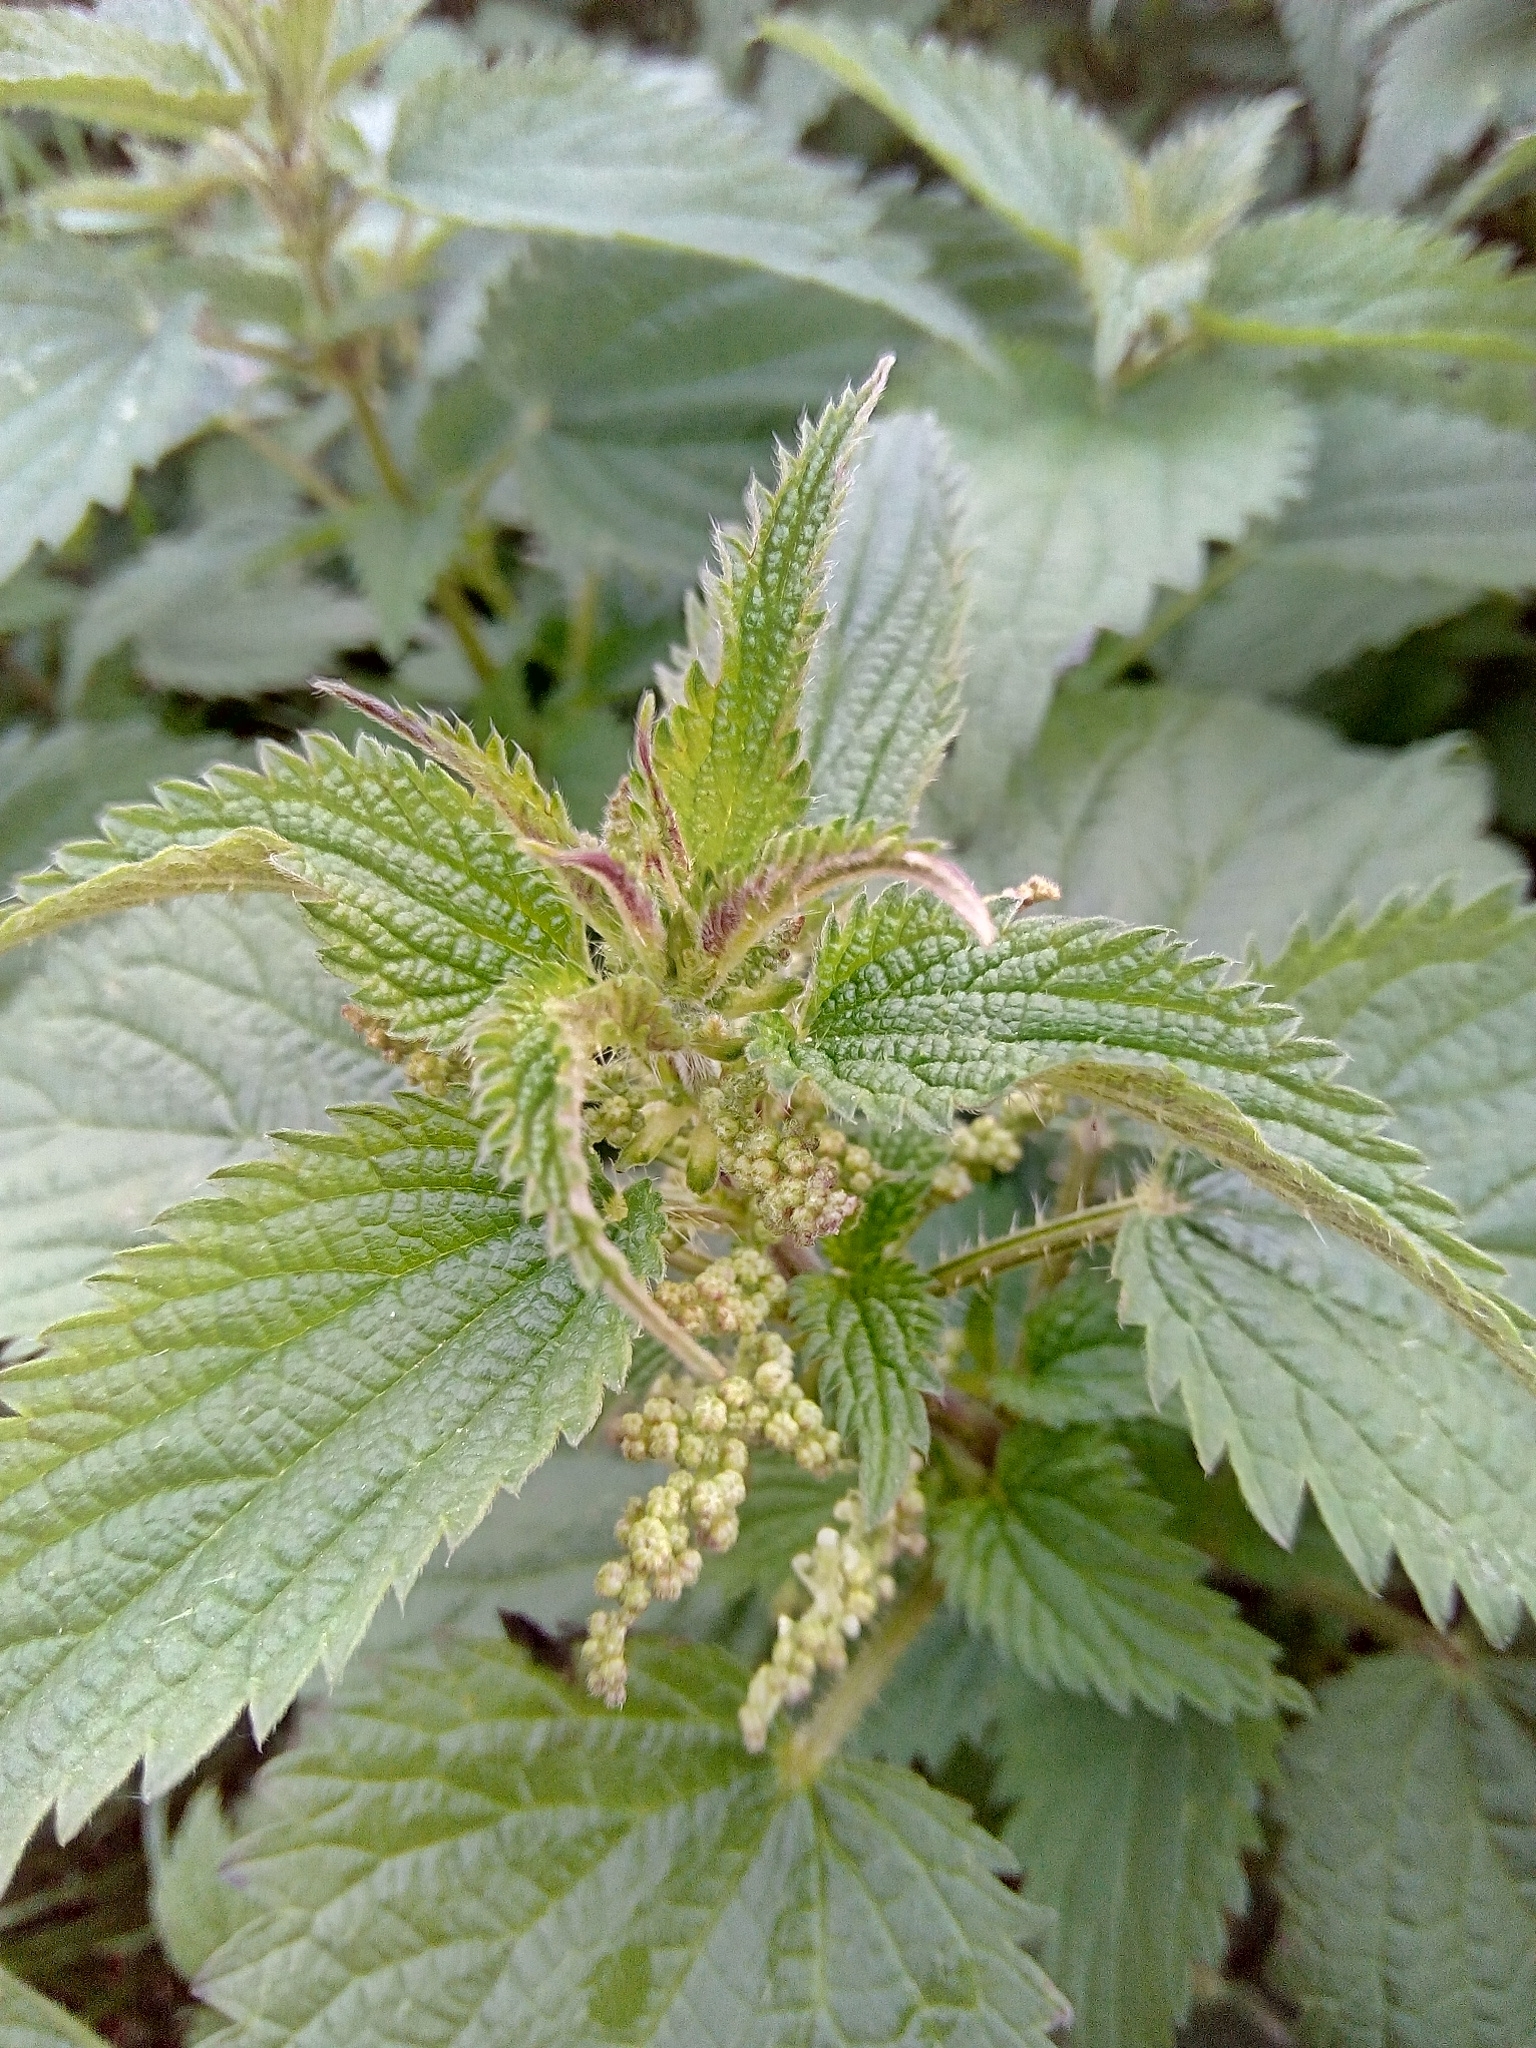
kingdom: Plantae
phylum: Tracheophyta
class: Magnoliopsida
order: Rosales
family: Urticaceae
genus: Urtica
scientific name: Urtica dioica
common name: Common nettle
